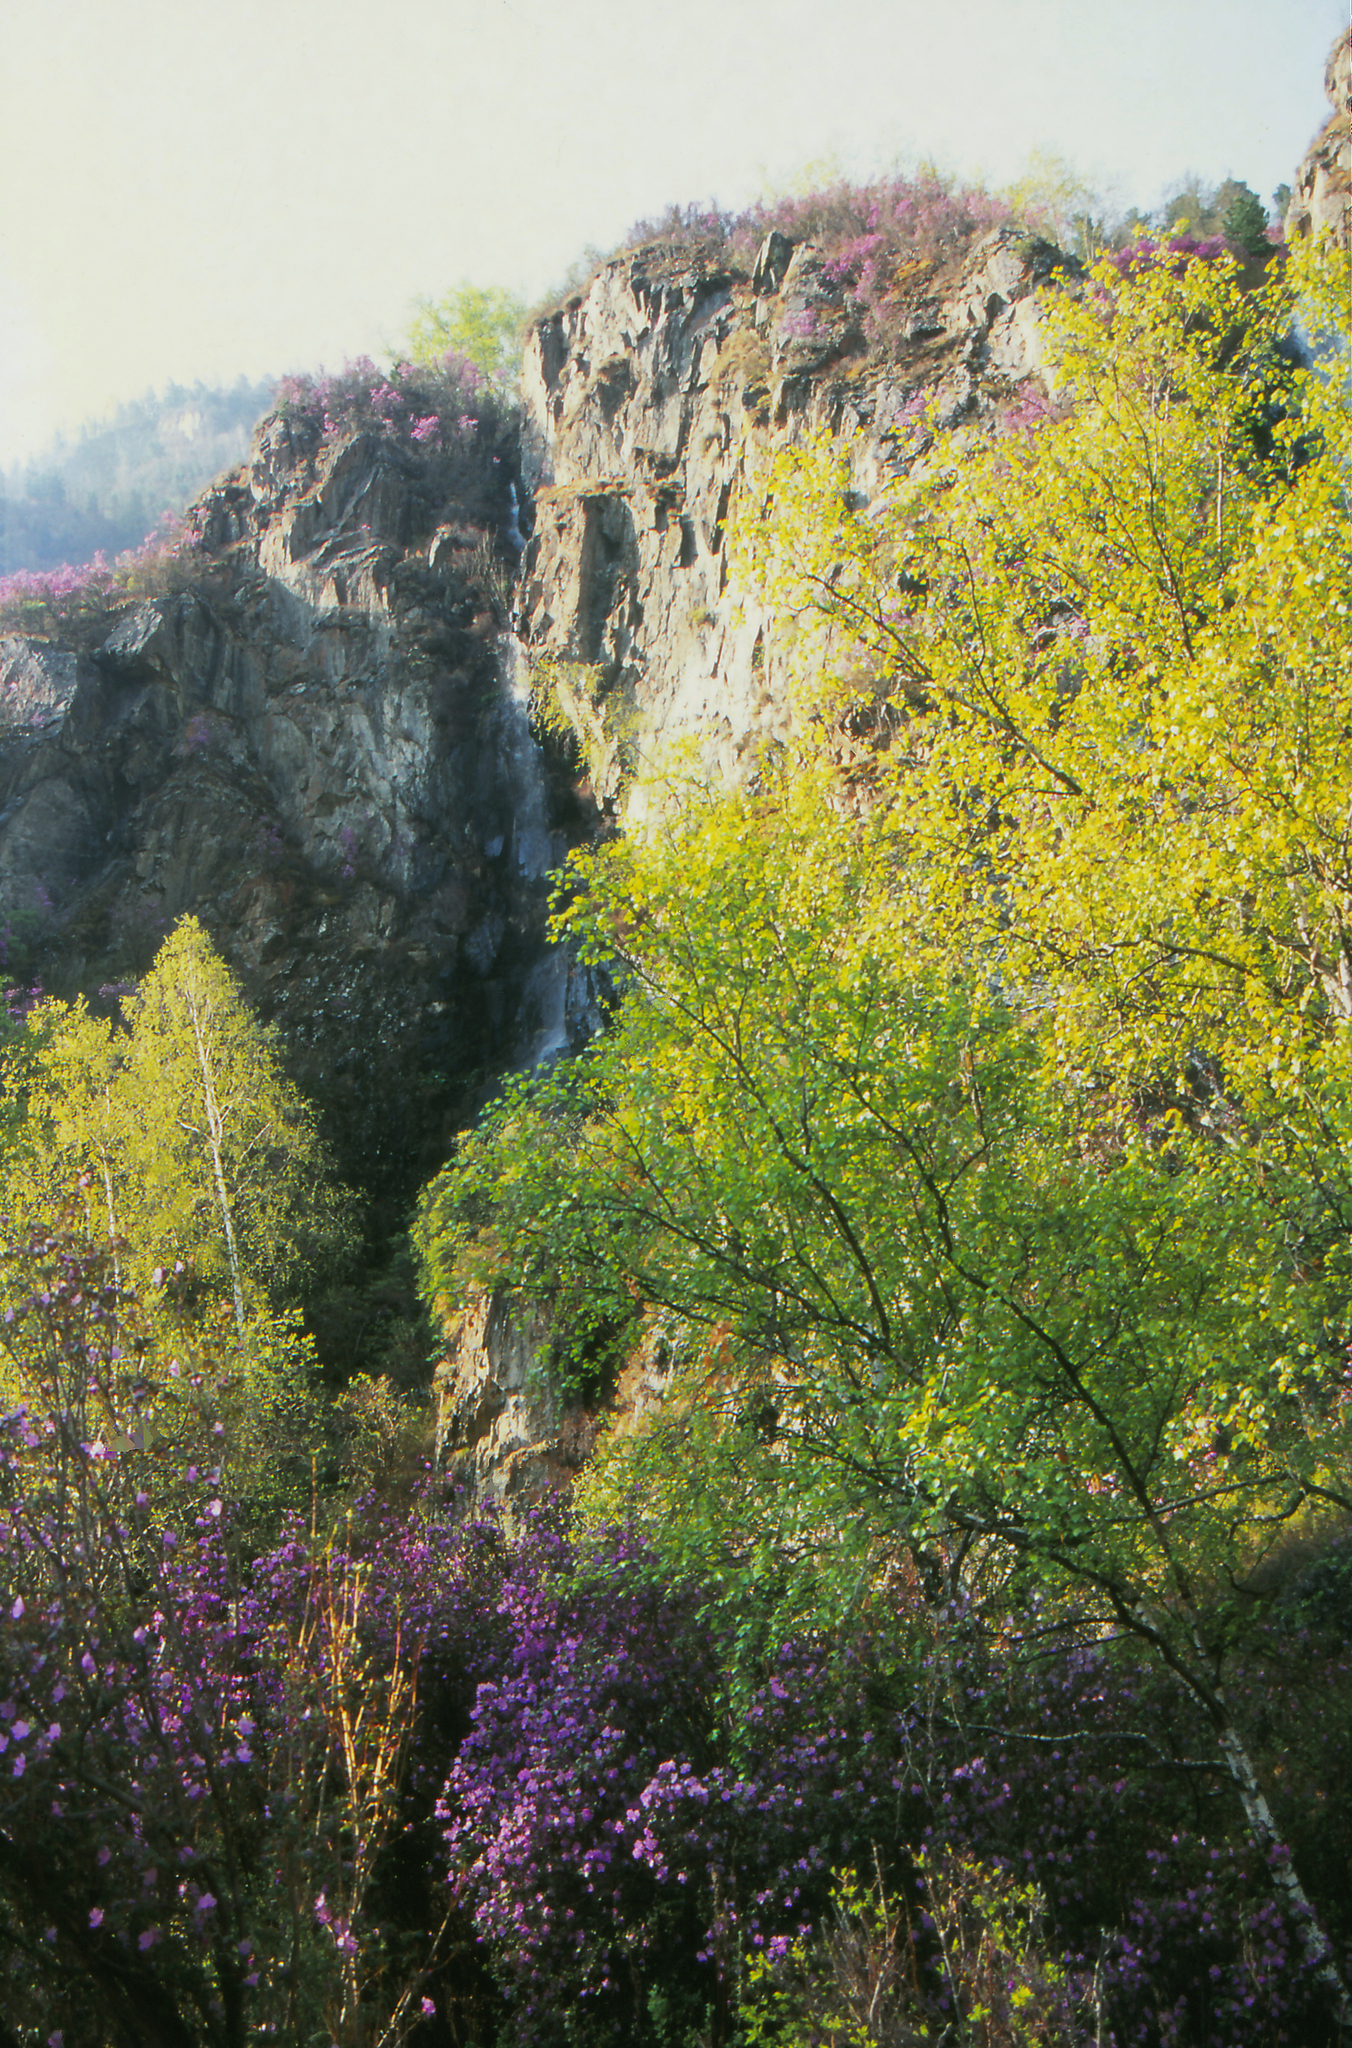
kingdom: Plantae
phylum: Tracheophyta
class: Magnoliopsida
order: Fagales
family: Betulaceae
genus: Betula
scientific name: Betula pendula
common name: Silver birch
